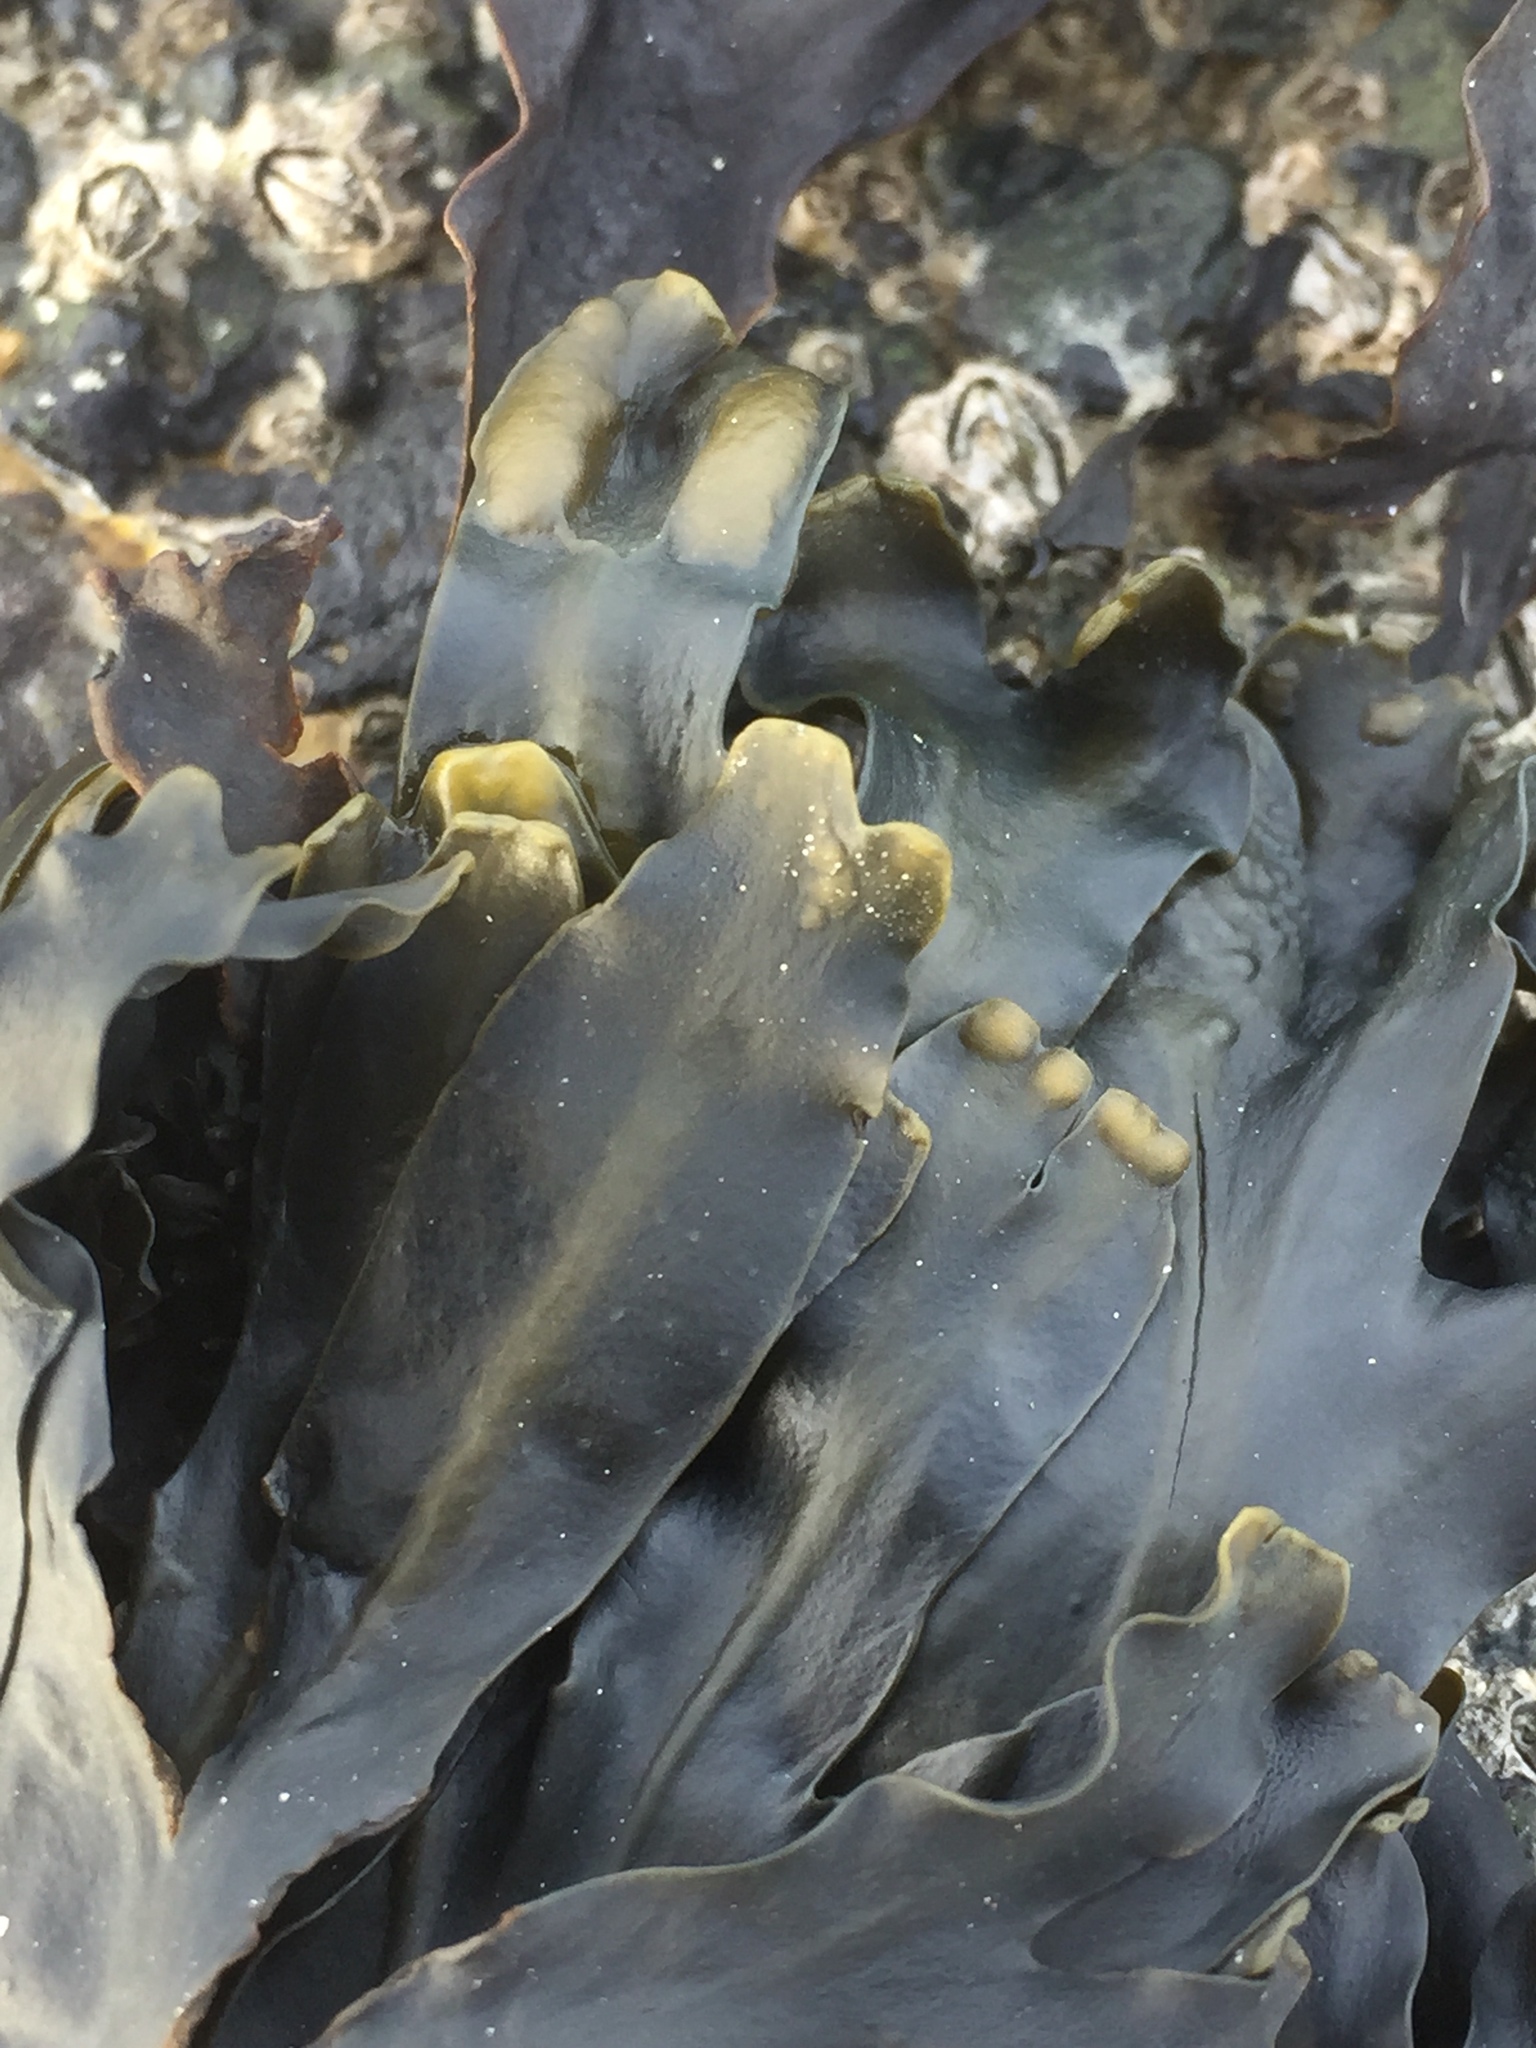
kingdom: Chromista
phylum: Ochrophyta
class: Phaeophyceae
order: Fucales
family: Fucaceae
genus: Fucus
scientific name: Fucus vesiculosus
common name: Bladder wrack
